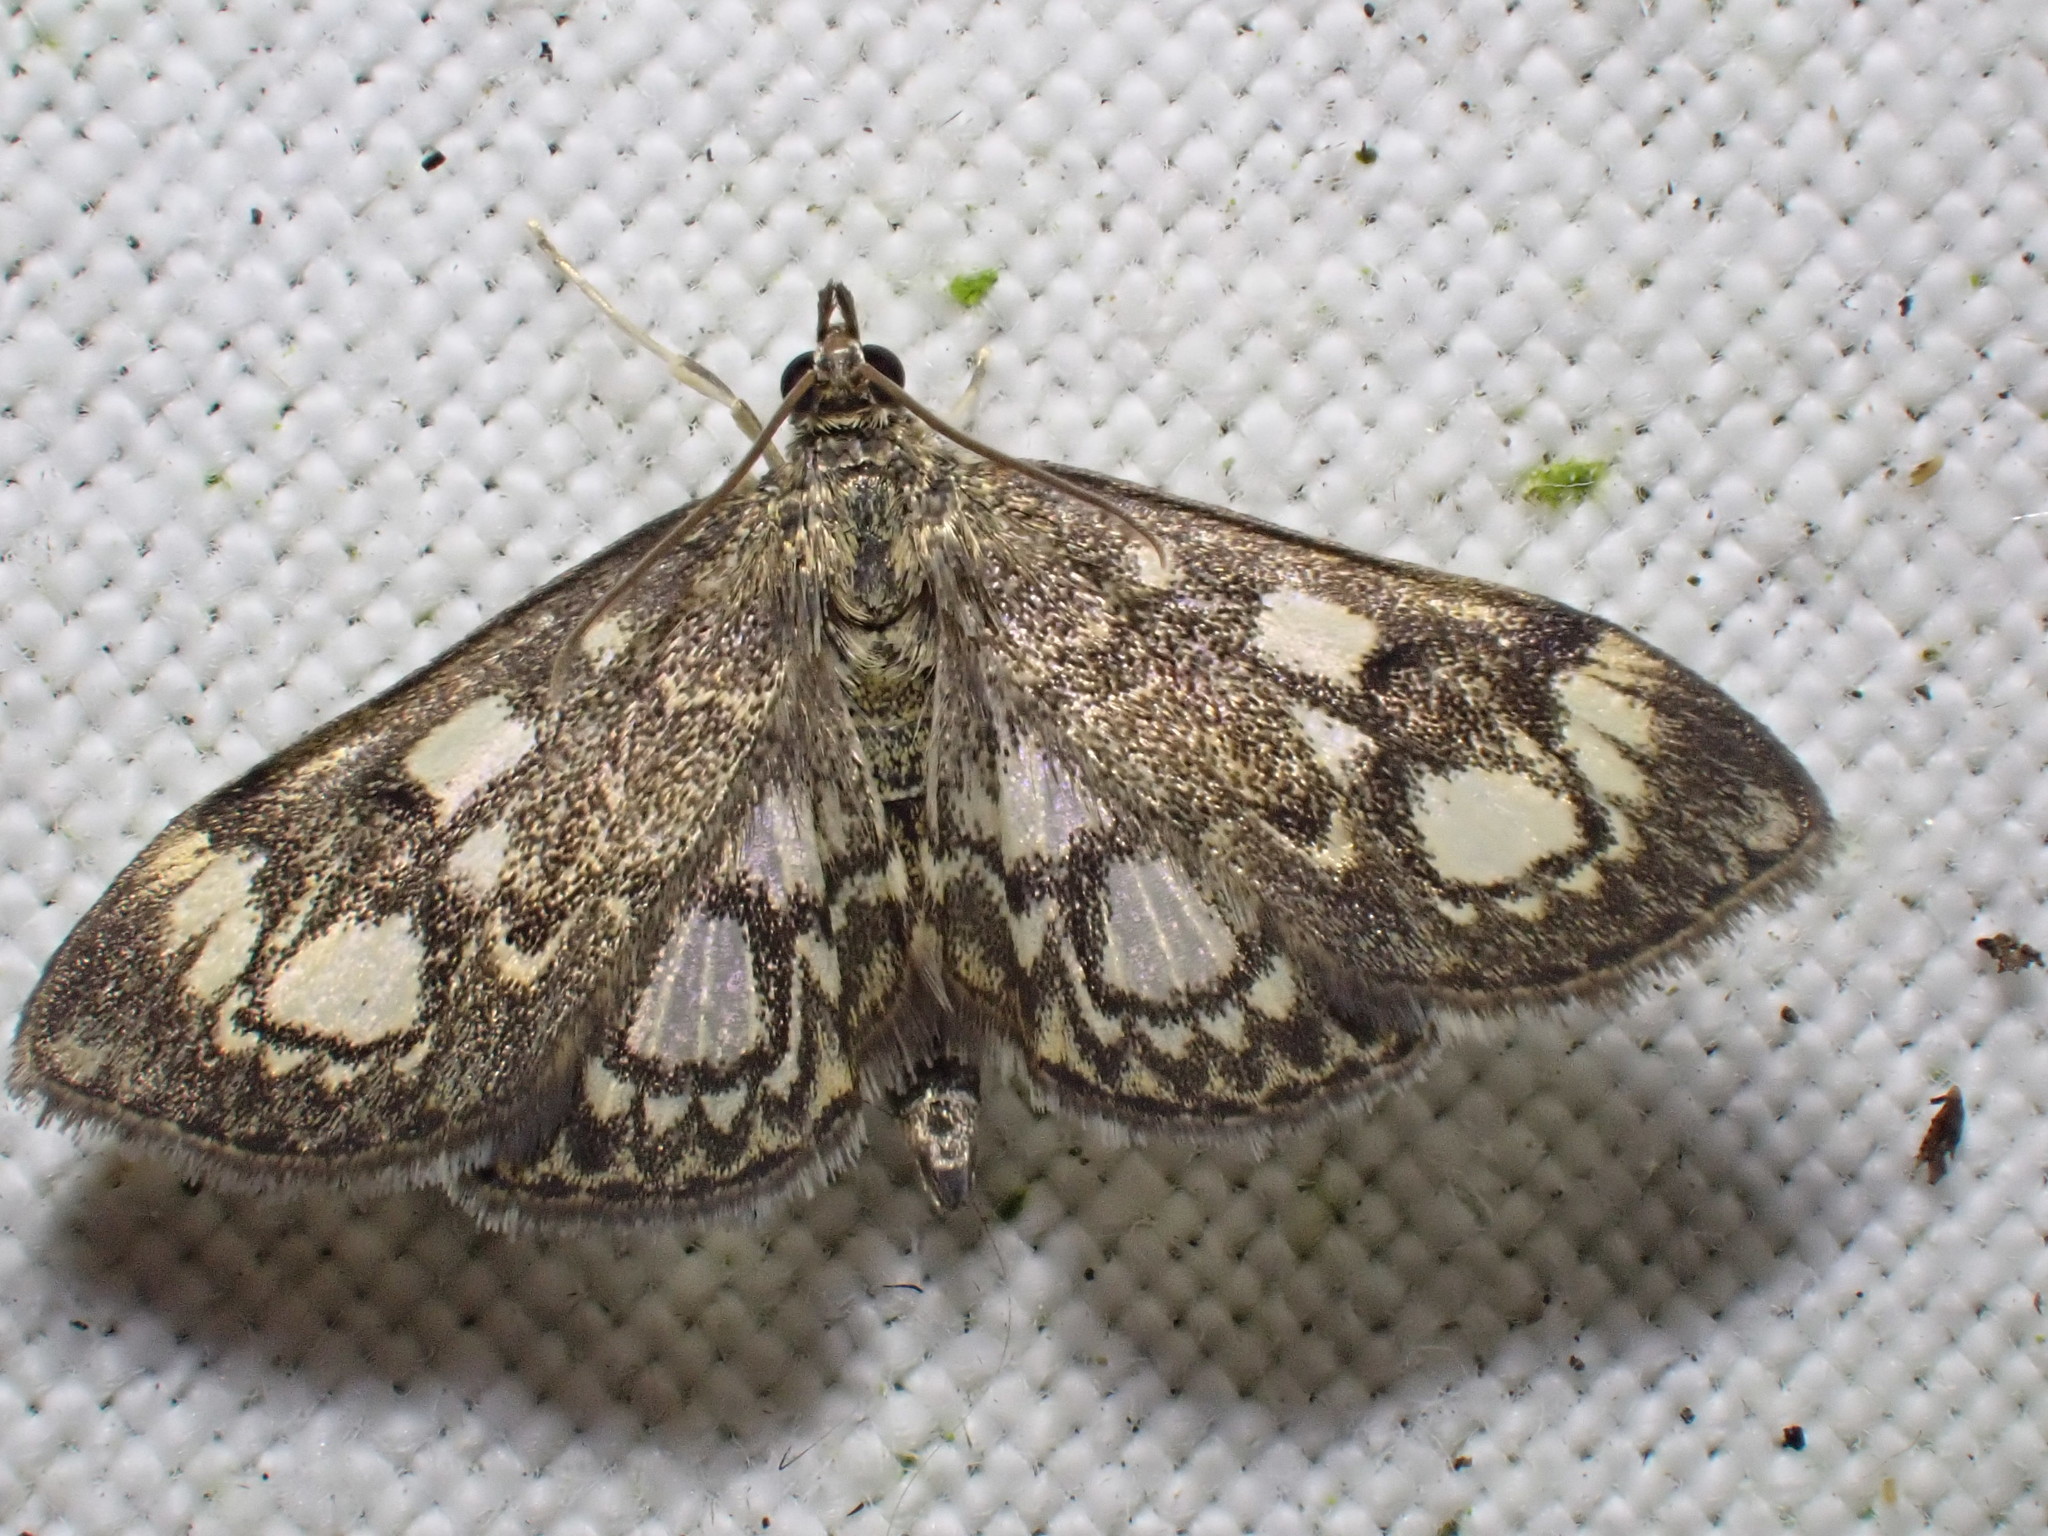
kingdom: Animalia
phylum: Arthropoda
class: Insecta
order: Lepidoptera
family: Crambidae
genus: Anania
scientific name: Anania coronata
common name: Elder pearl
